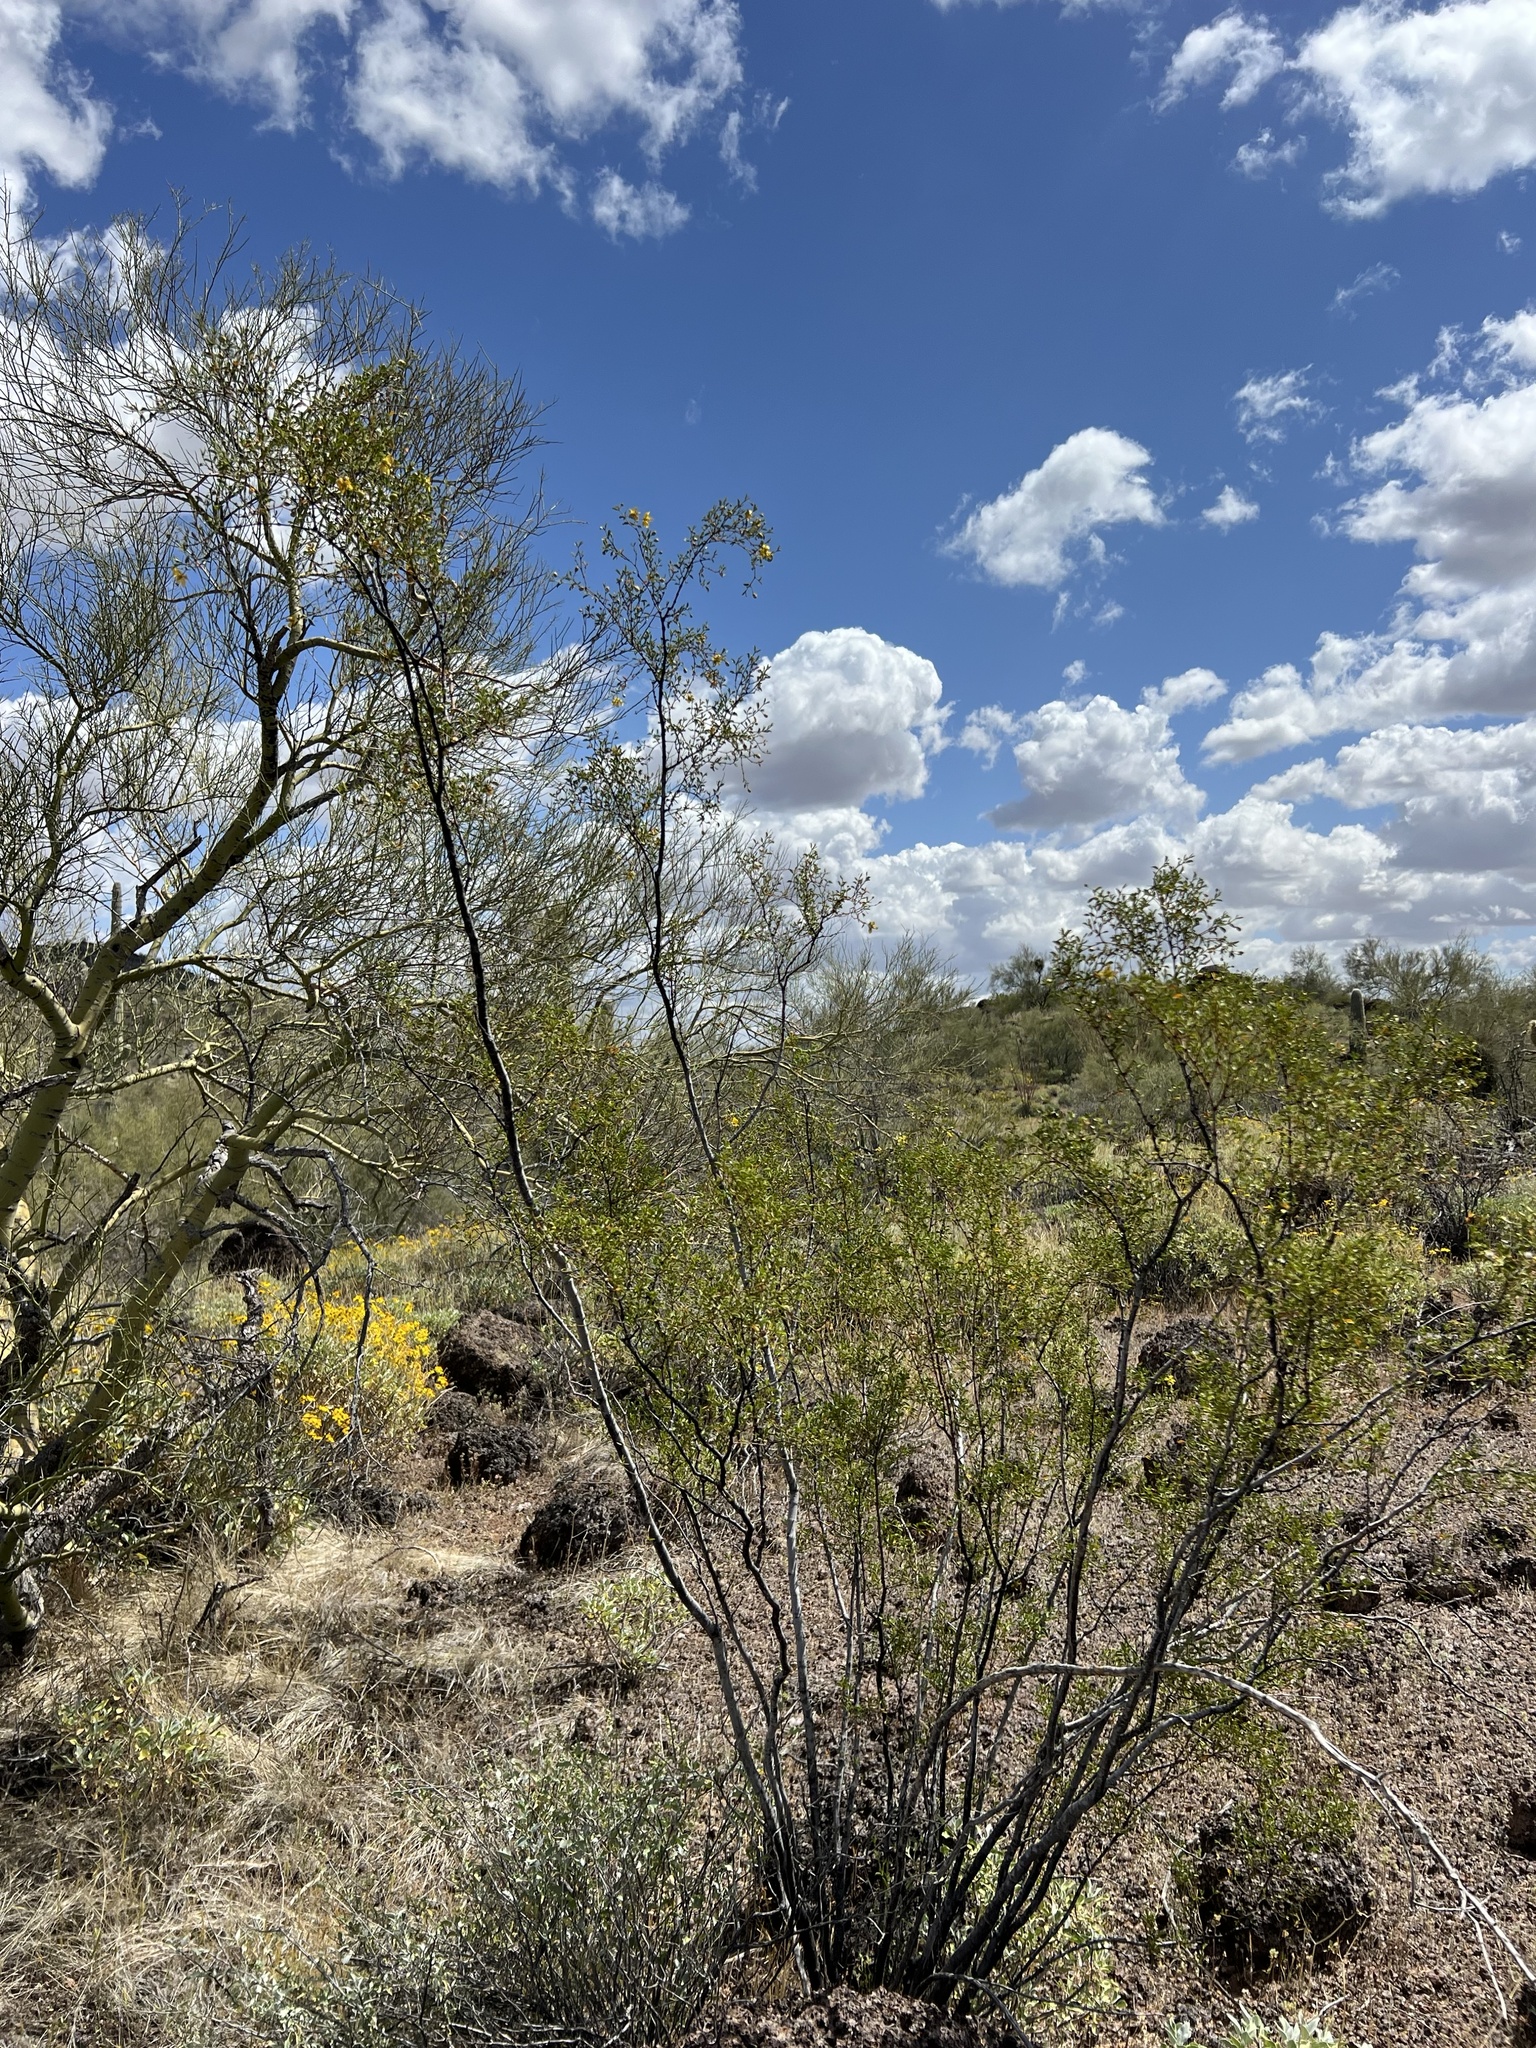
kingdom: Plantae
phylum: Tracheophyta
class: Magnoliopsida
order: Zygophyllales
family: Zygophyllaceae
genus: Larrea
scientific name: Larrea tridentata
